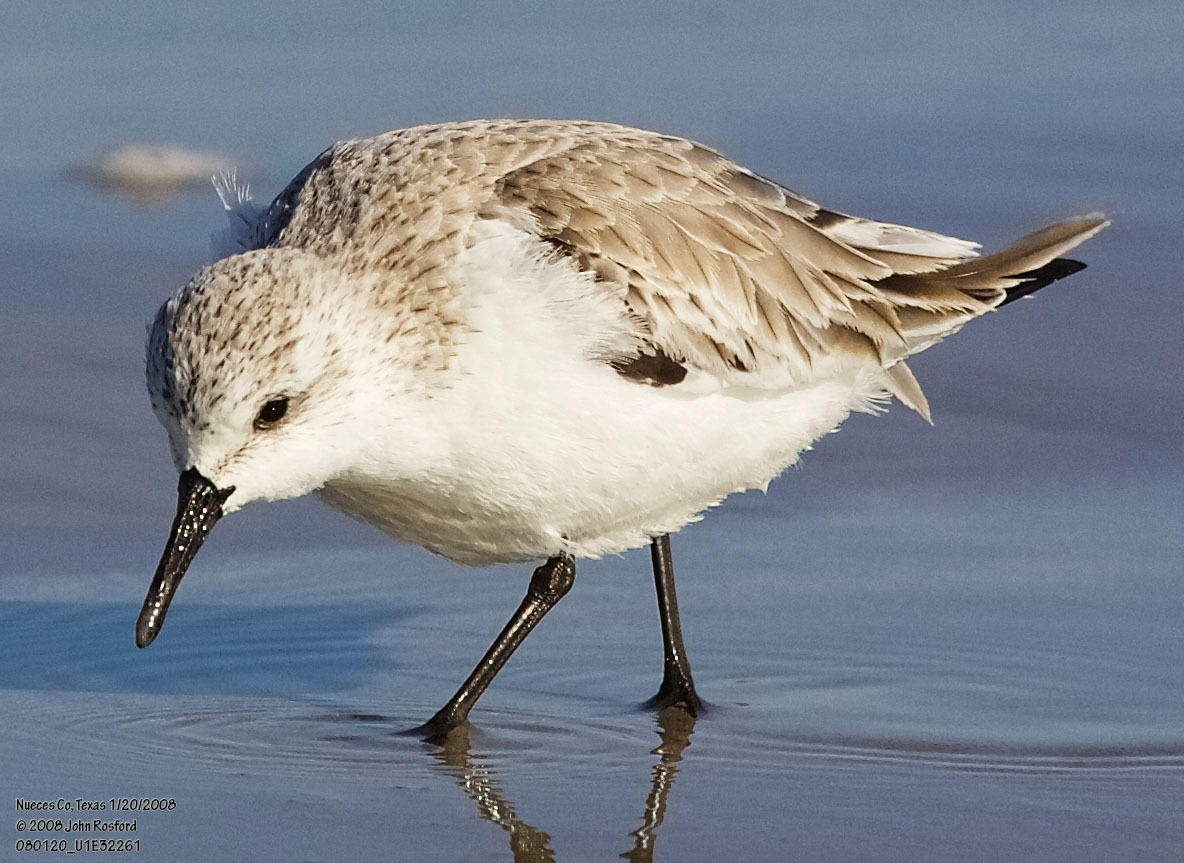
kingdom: Animalia
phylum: Chordata
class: Aves
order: Charadriiformes
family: Scolopacidae
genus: Calidris
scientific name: Calidris alba
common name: Sanderling
